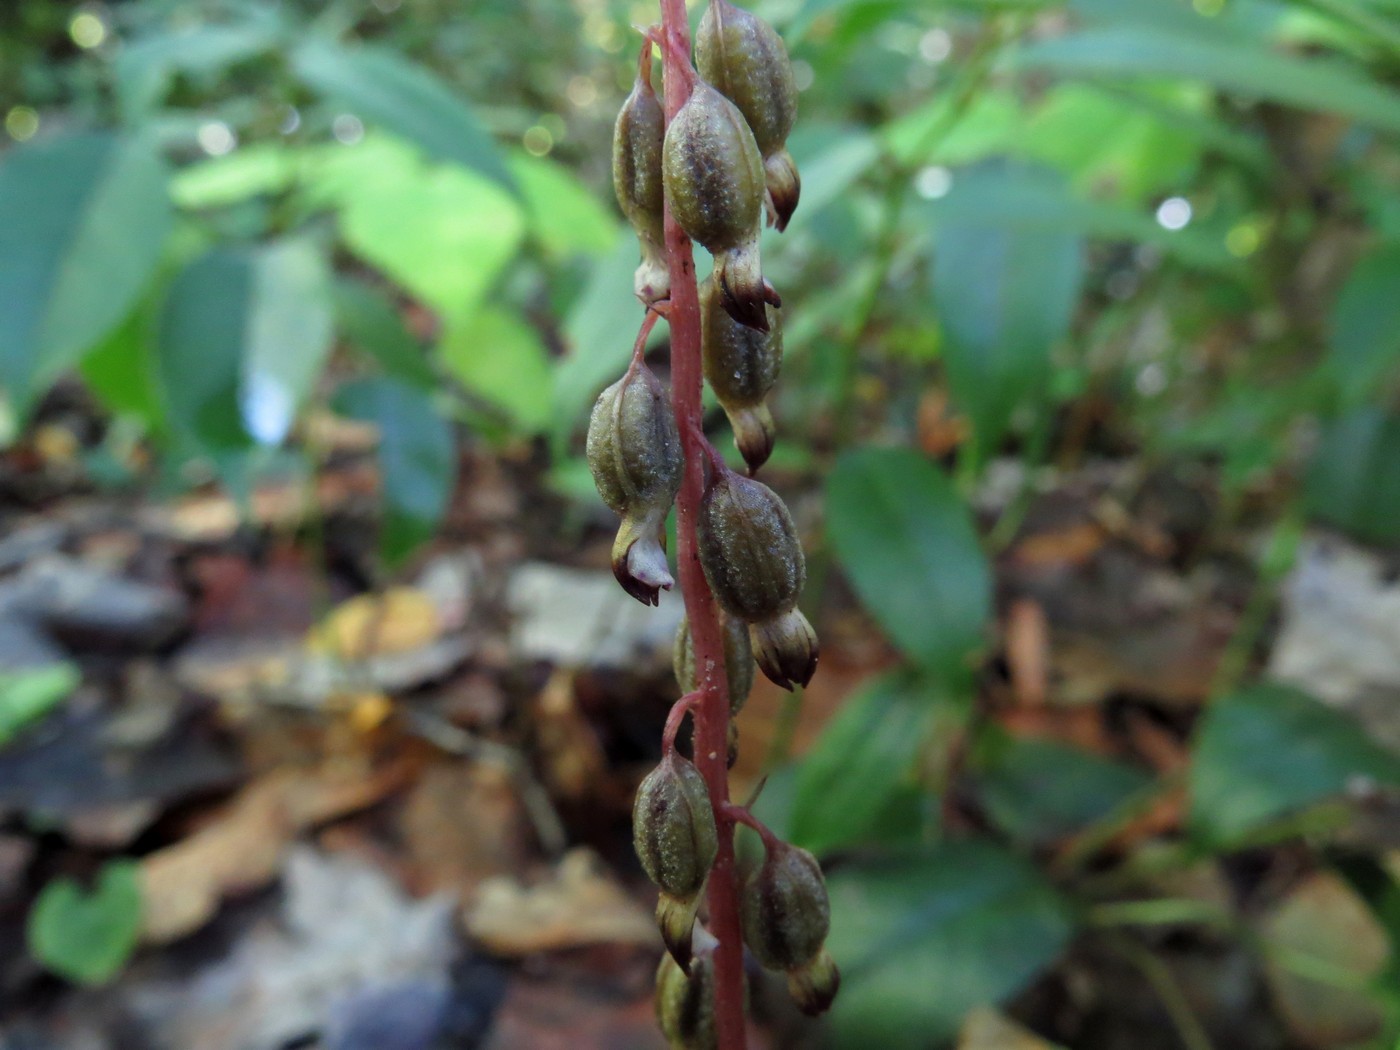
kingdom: Plantae
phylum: Tracheophyta
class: Liliopsida
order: Asparagales
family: Orchidaceae
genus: Corallorhiza
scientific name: Corallorhiza odontorhiza
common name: Autumn coralroot
